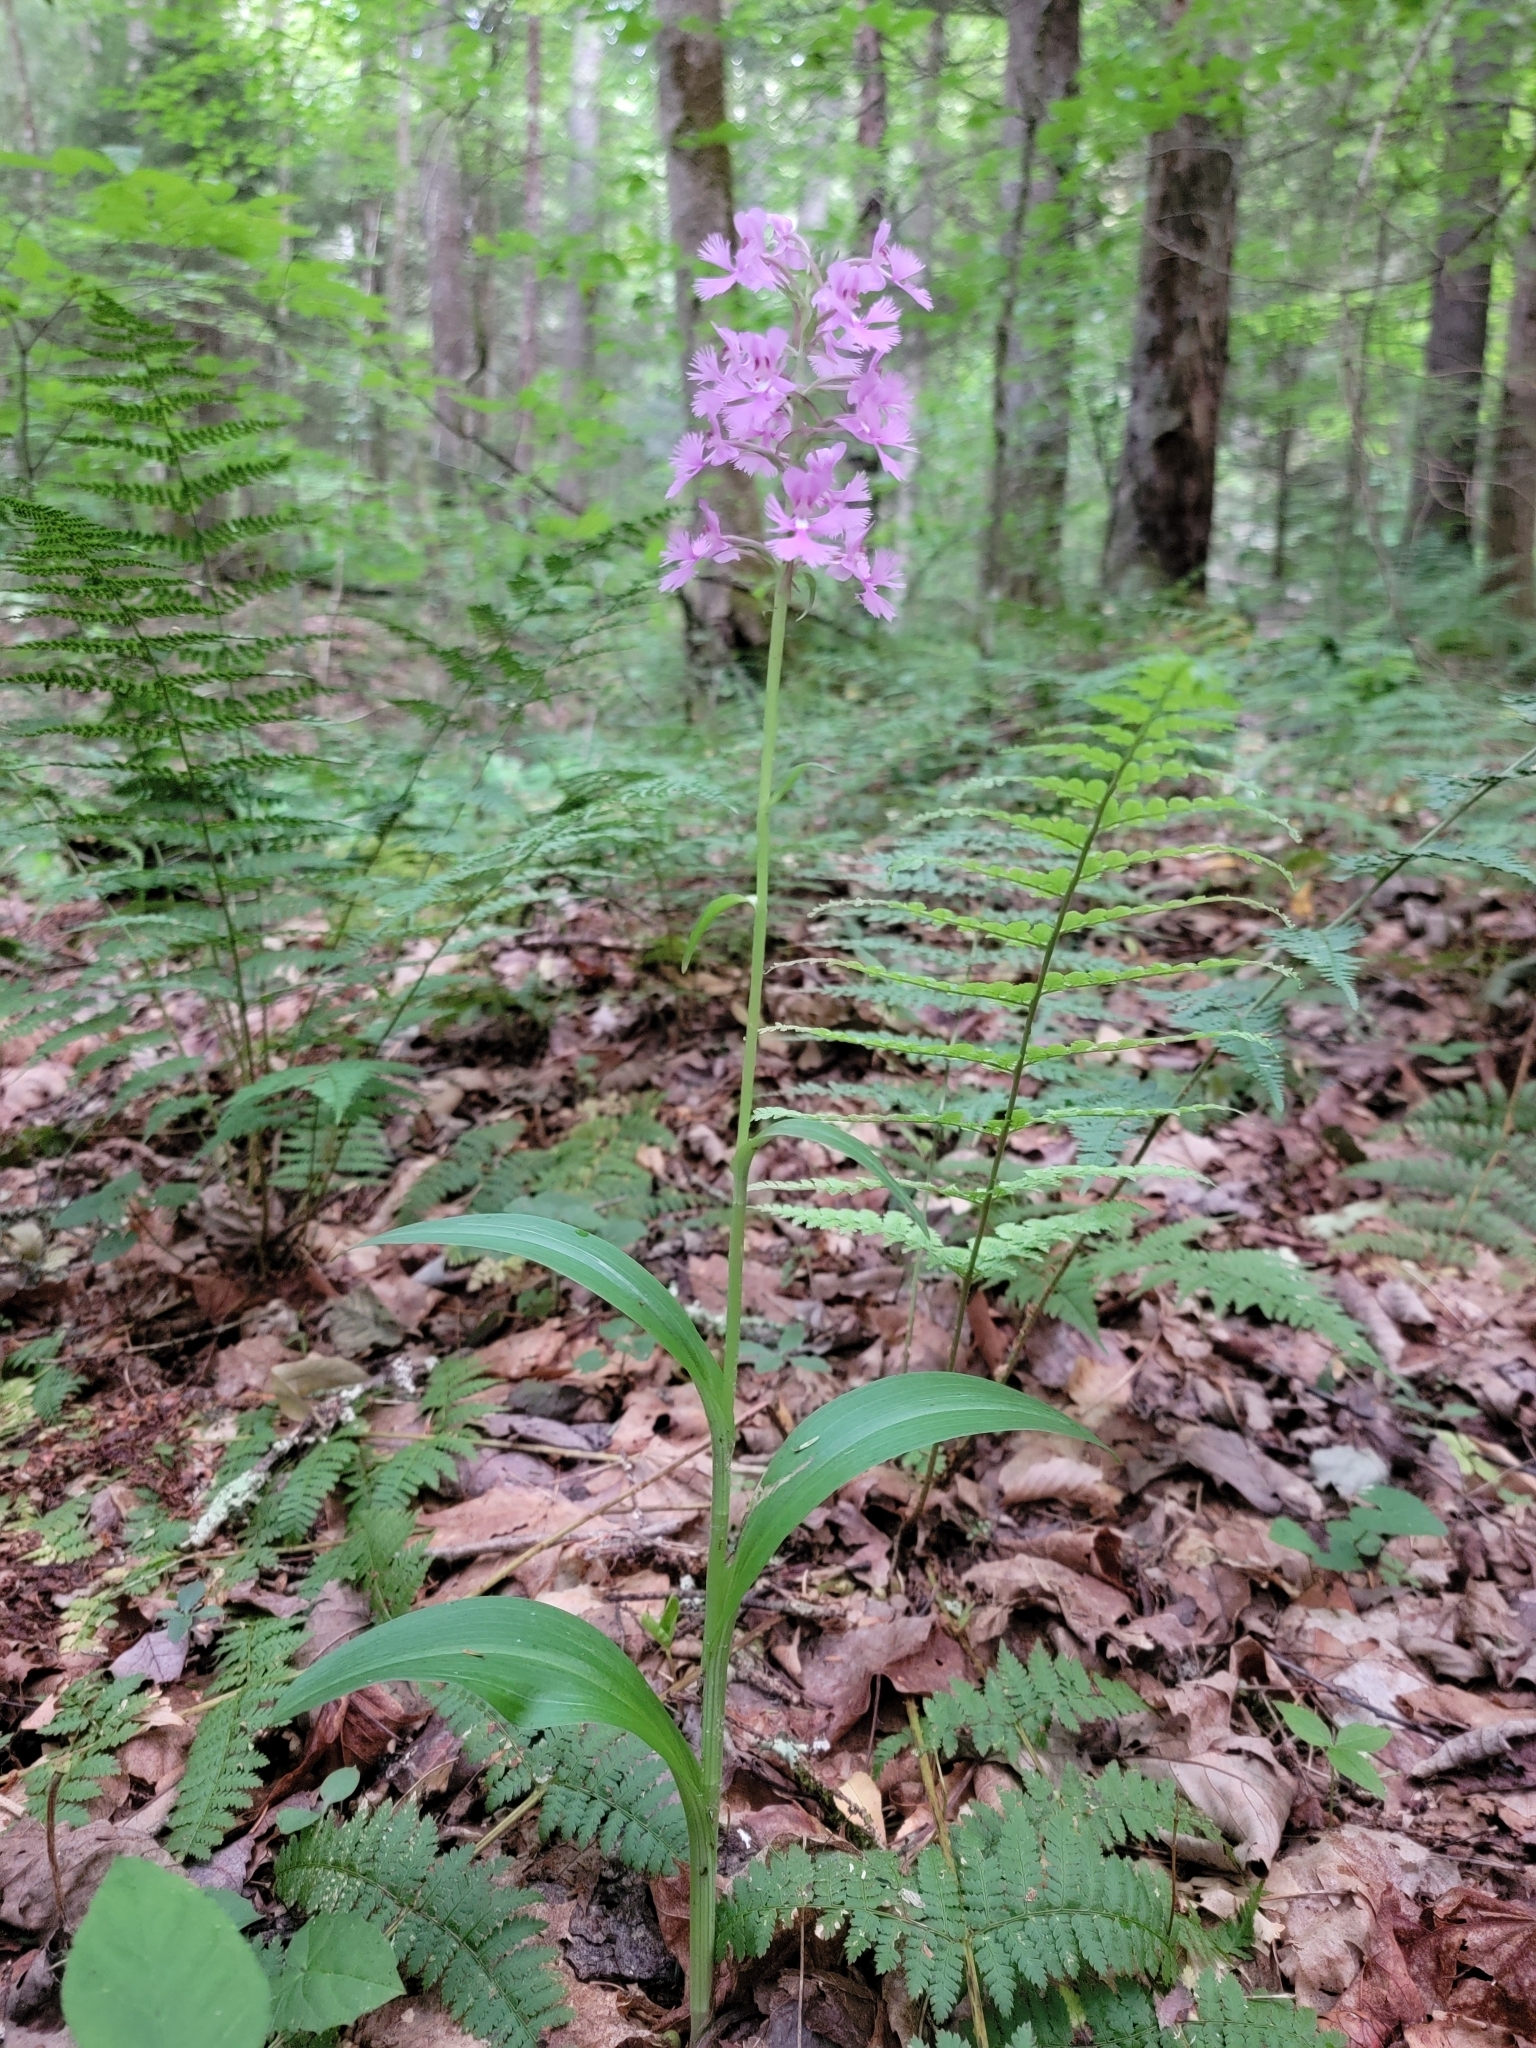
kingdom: Plantae
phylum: Tracheophyta
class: Liliopsida
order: Asparagales
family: Orchidaceae
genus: Platanthera
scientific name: Platanthera grandiflora
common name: Greater purple fringed orchid
